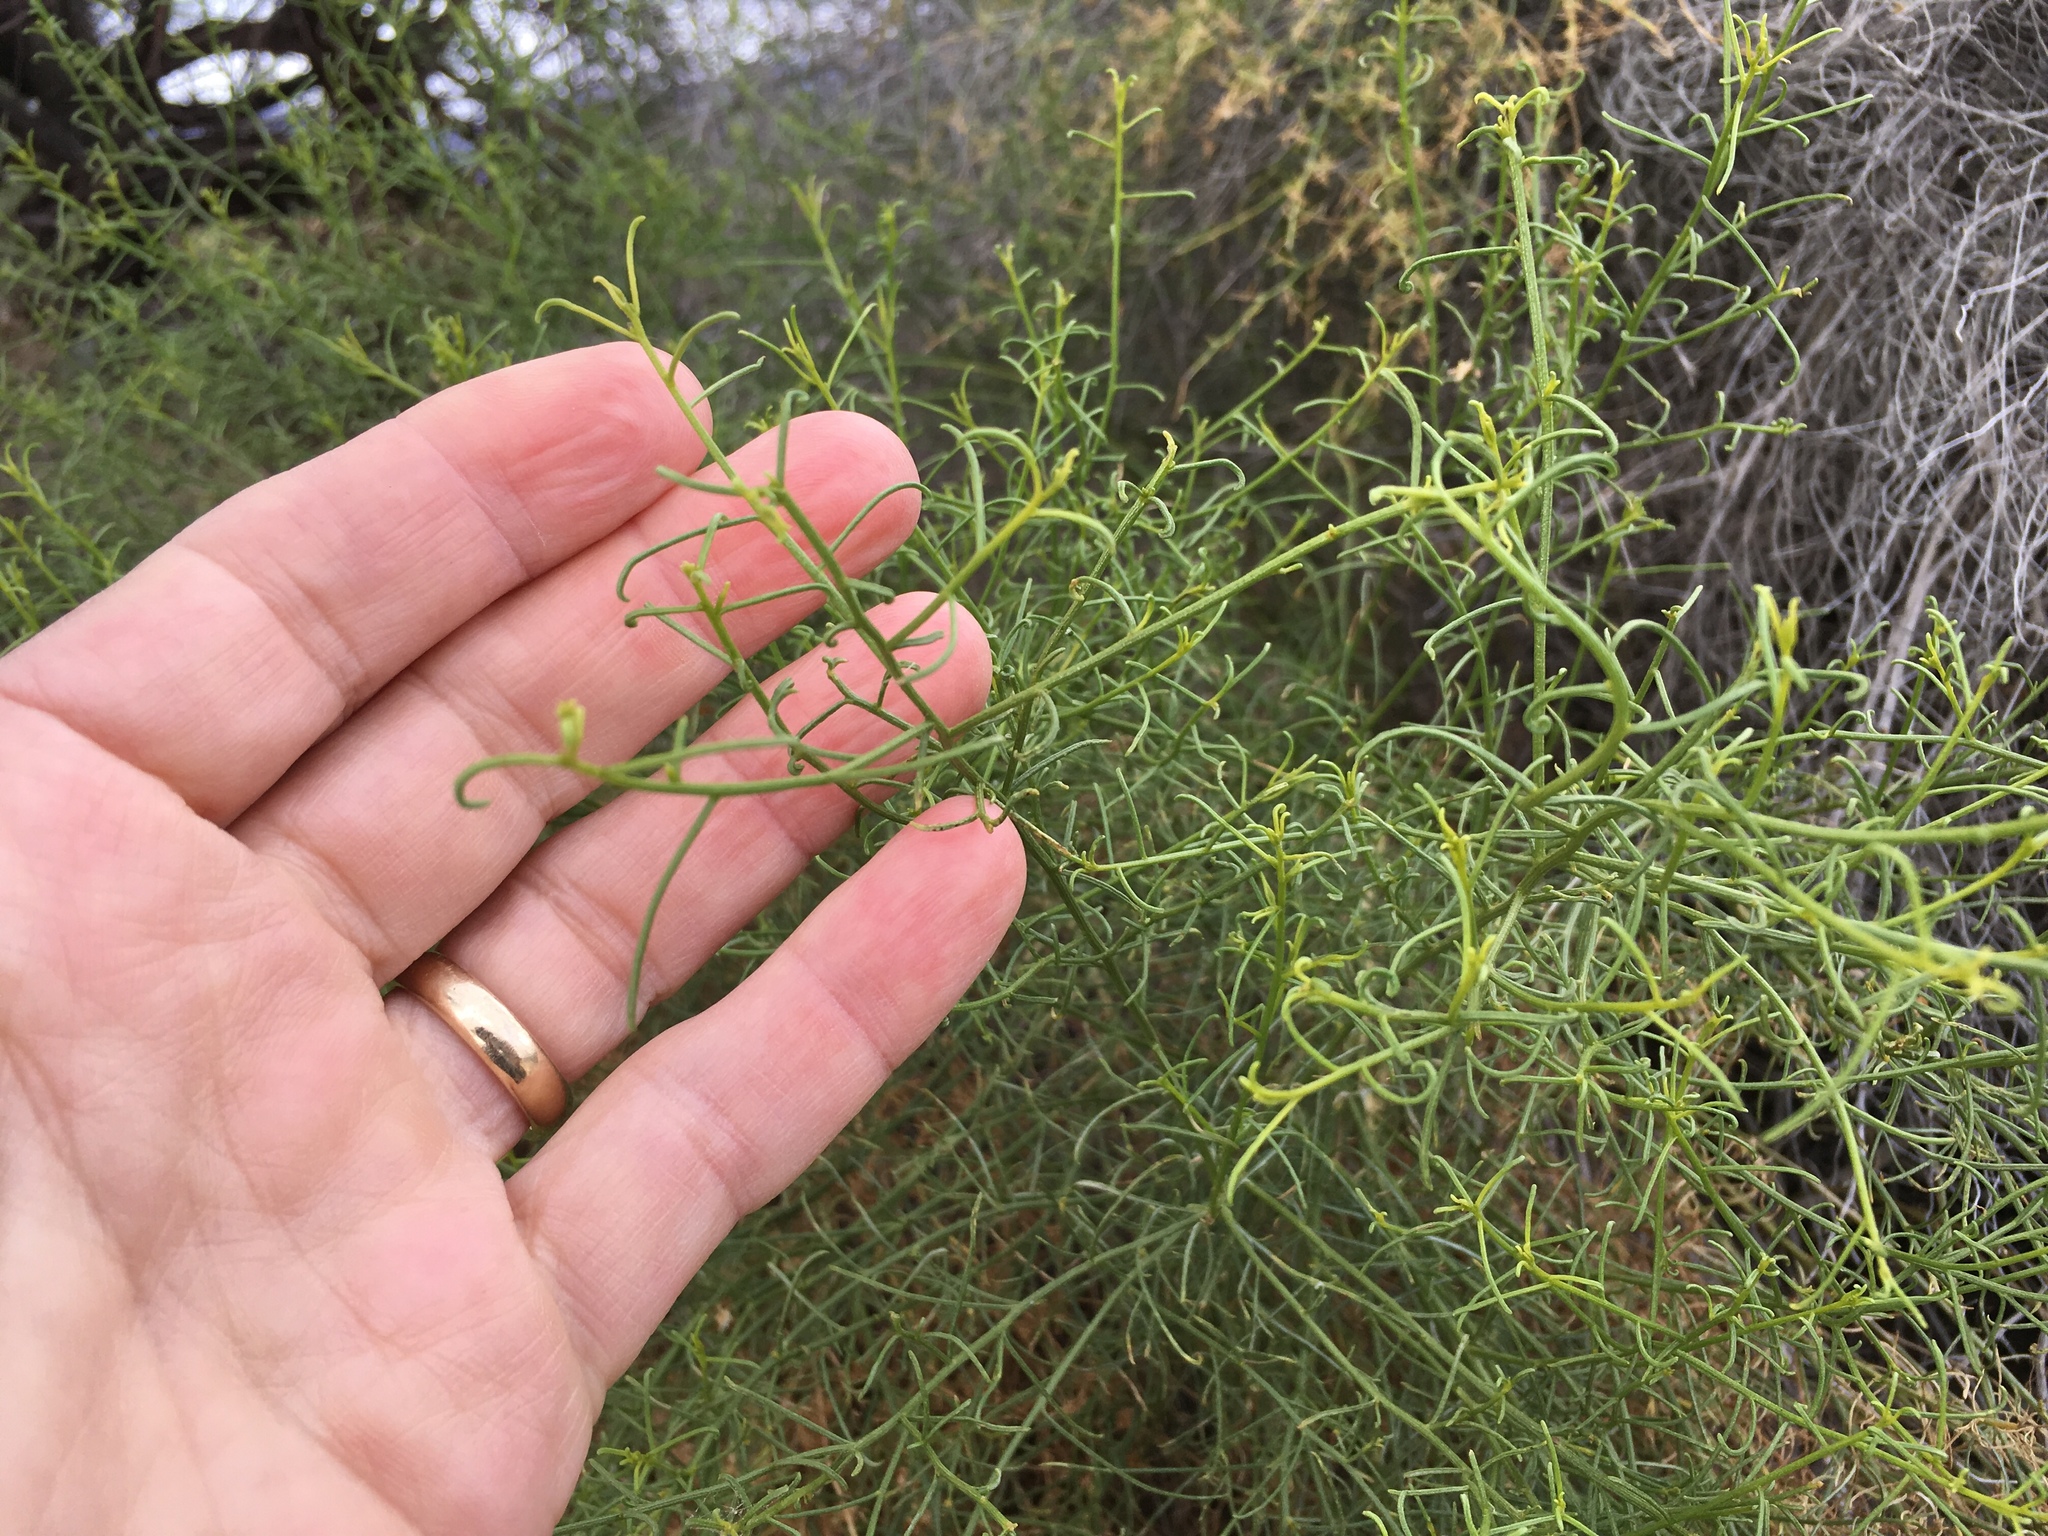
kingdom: Plantae
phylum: Tracheophyta
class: Magnoliopsida
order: Asterales
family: Asteraceae
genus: Ambrosia
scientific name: Ambrosia salsola
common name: Burrobrush
